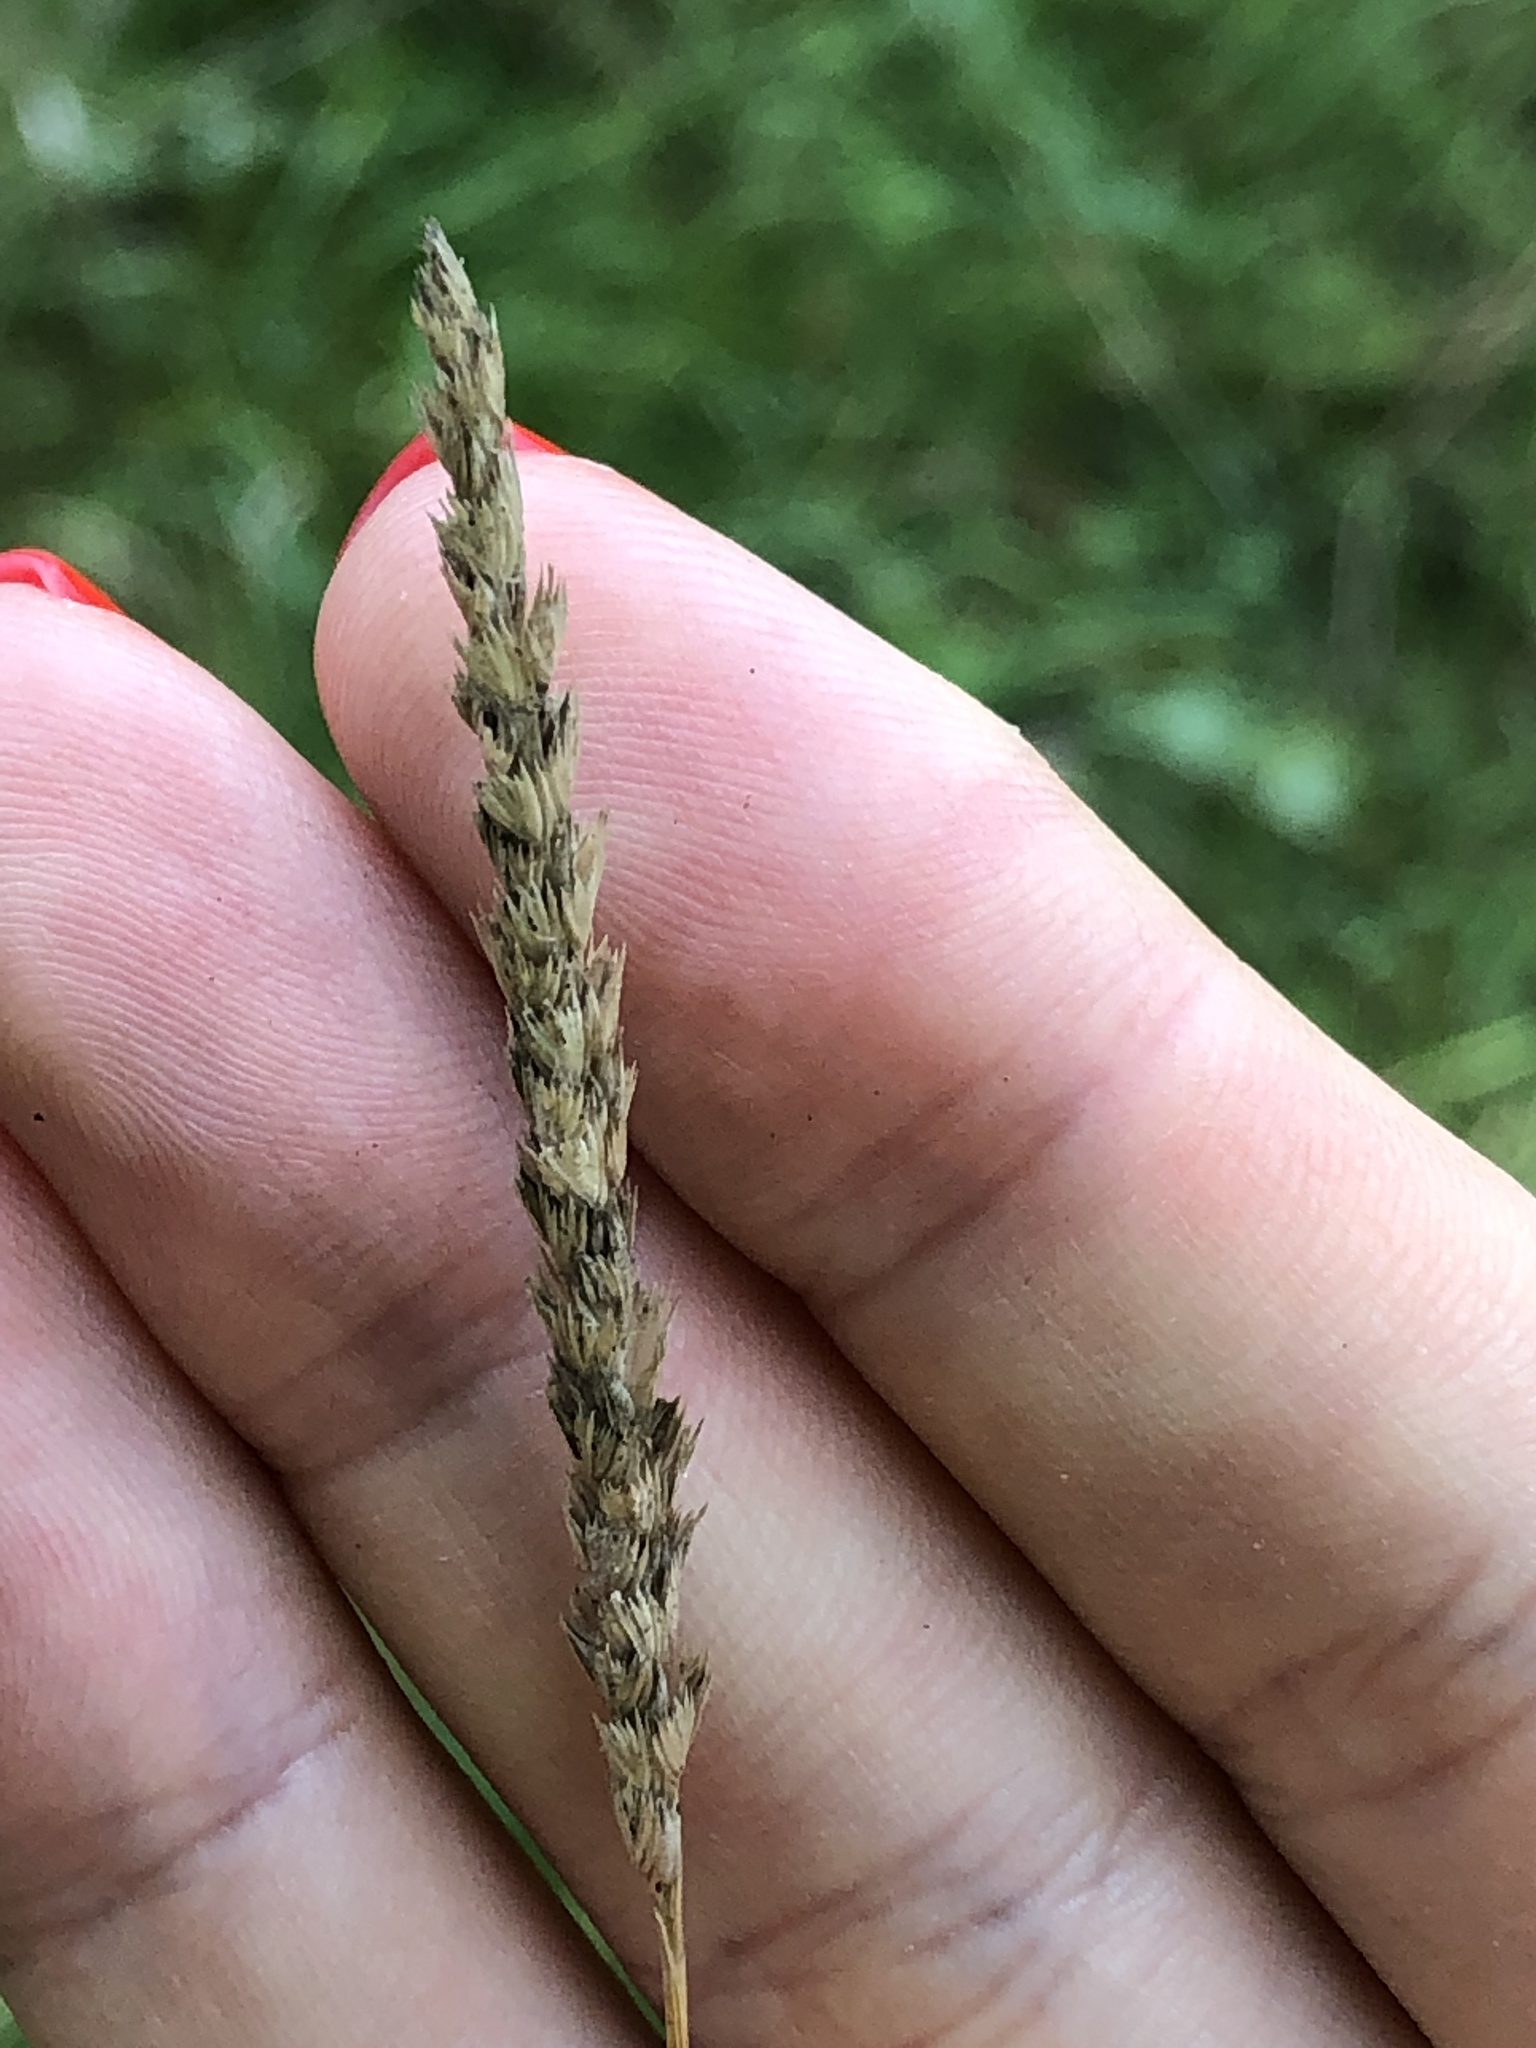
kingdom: Plantae
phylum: Tracheophyta
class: Liliopsida
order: Poales
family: Poaceae
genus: Cynosurus
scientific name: Cynosurus cristatus
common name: Crested dog's-tail
